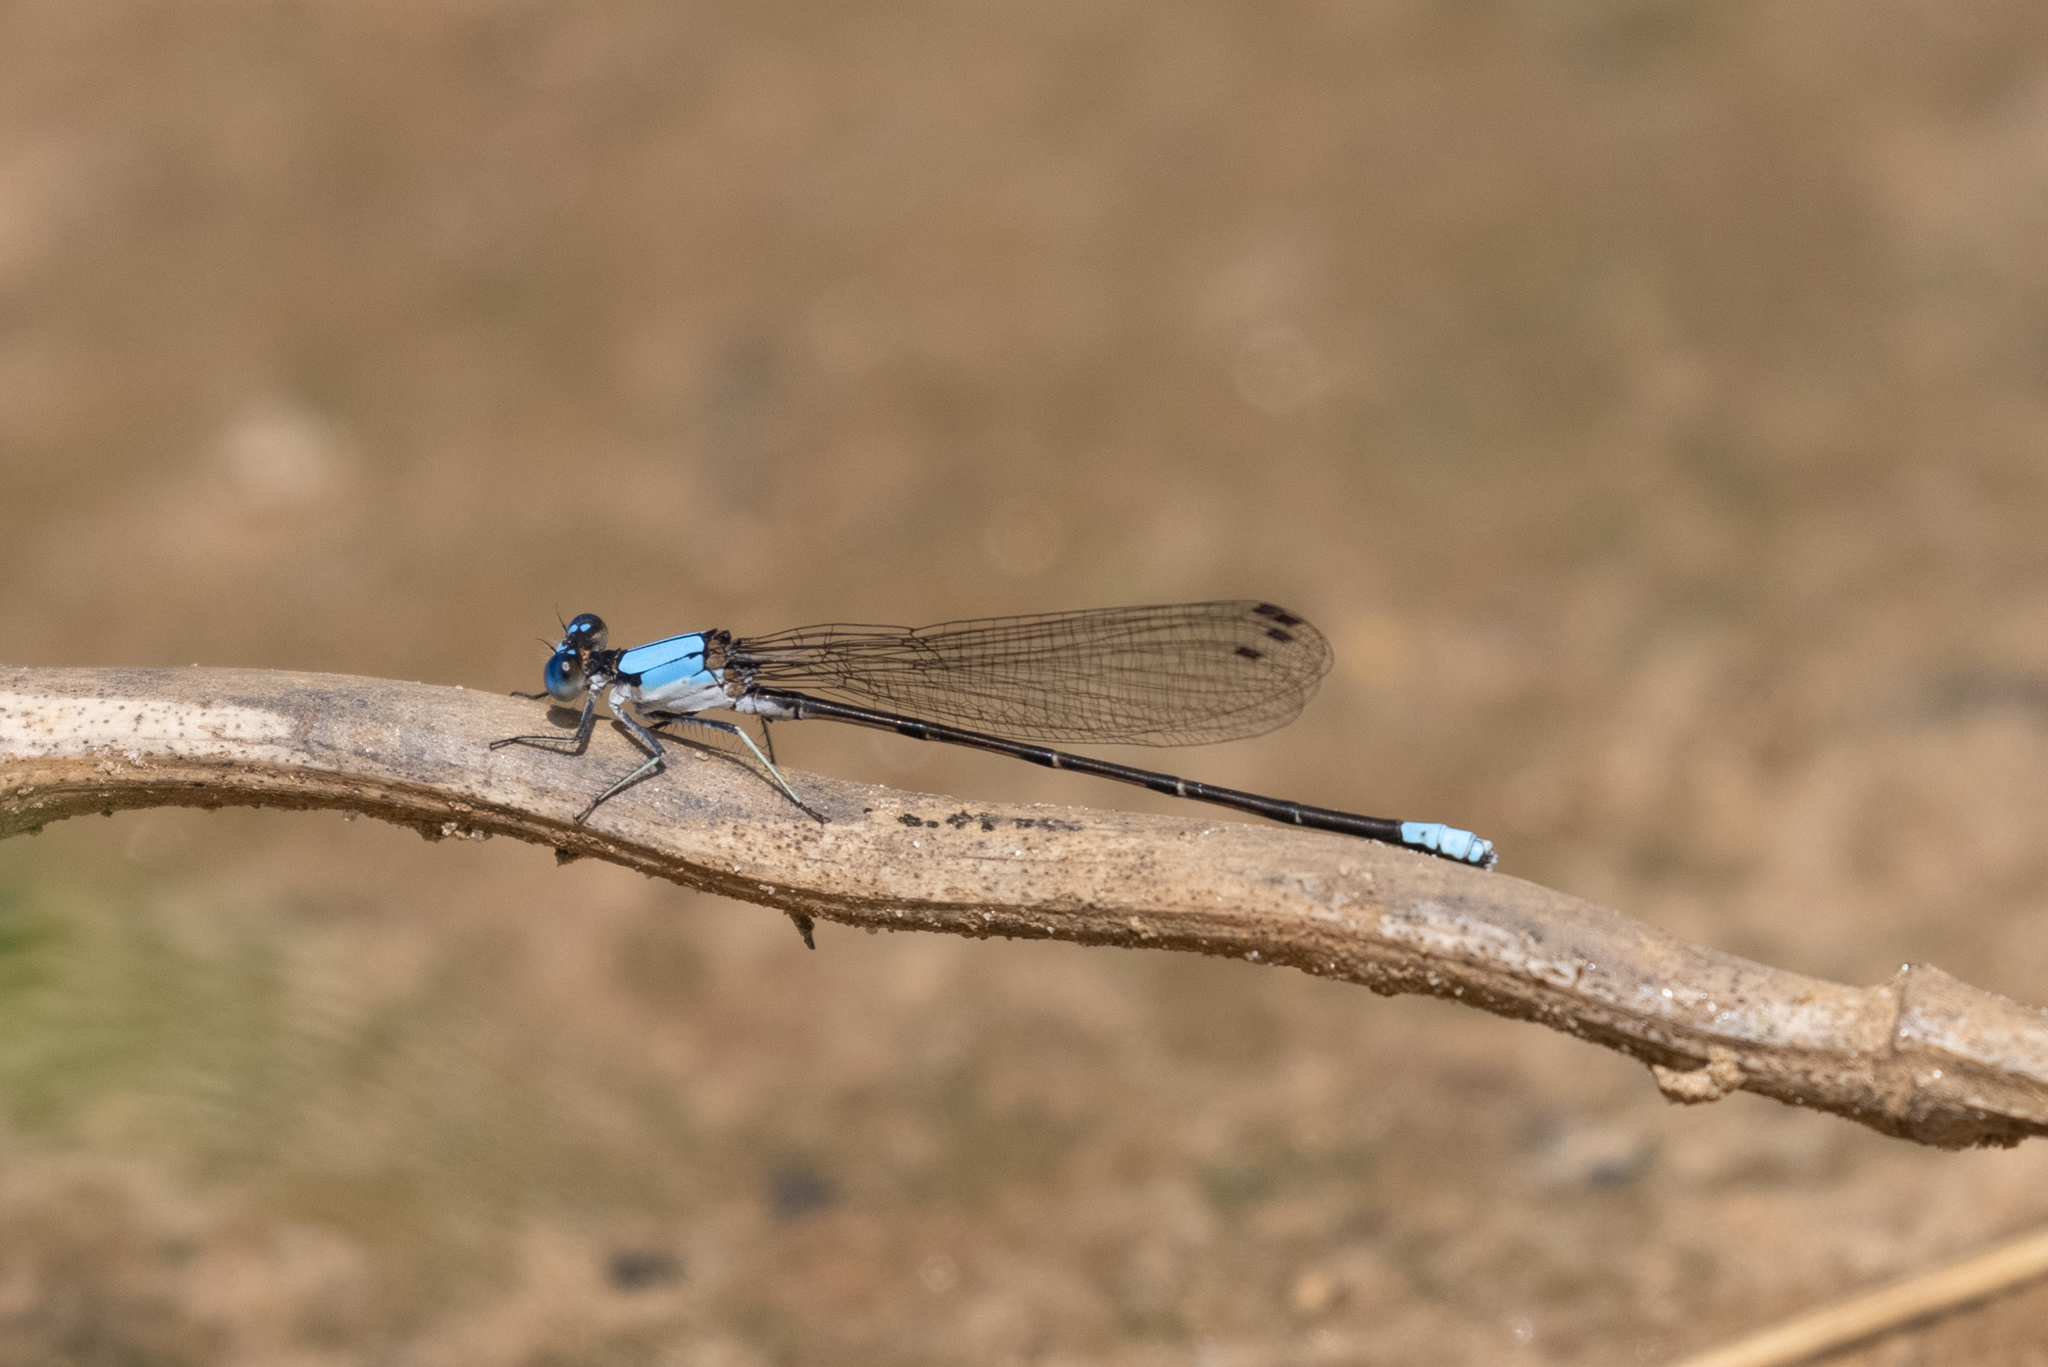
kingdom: Animalia
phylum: Arthropoda
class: Insecta
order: Odonata
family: Coenagrionidae
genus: Argia
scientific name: Argia apicalis
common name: Blue-fronted dancer
